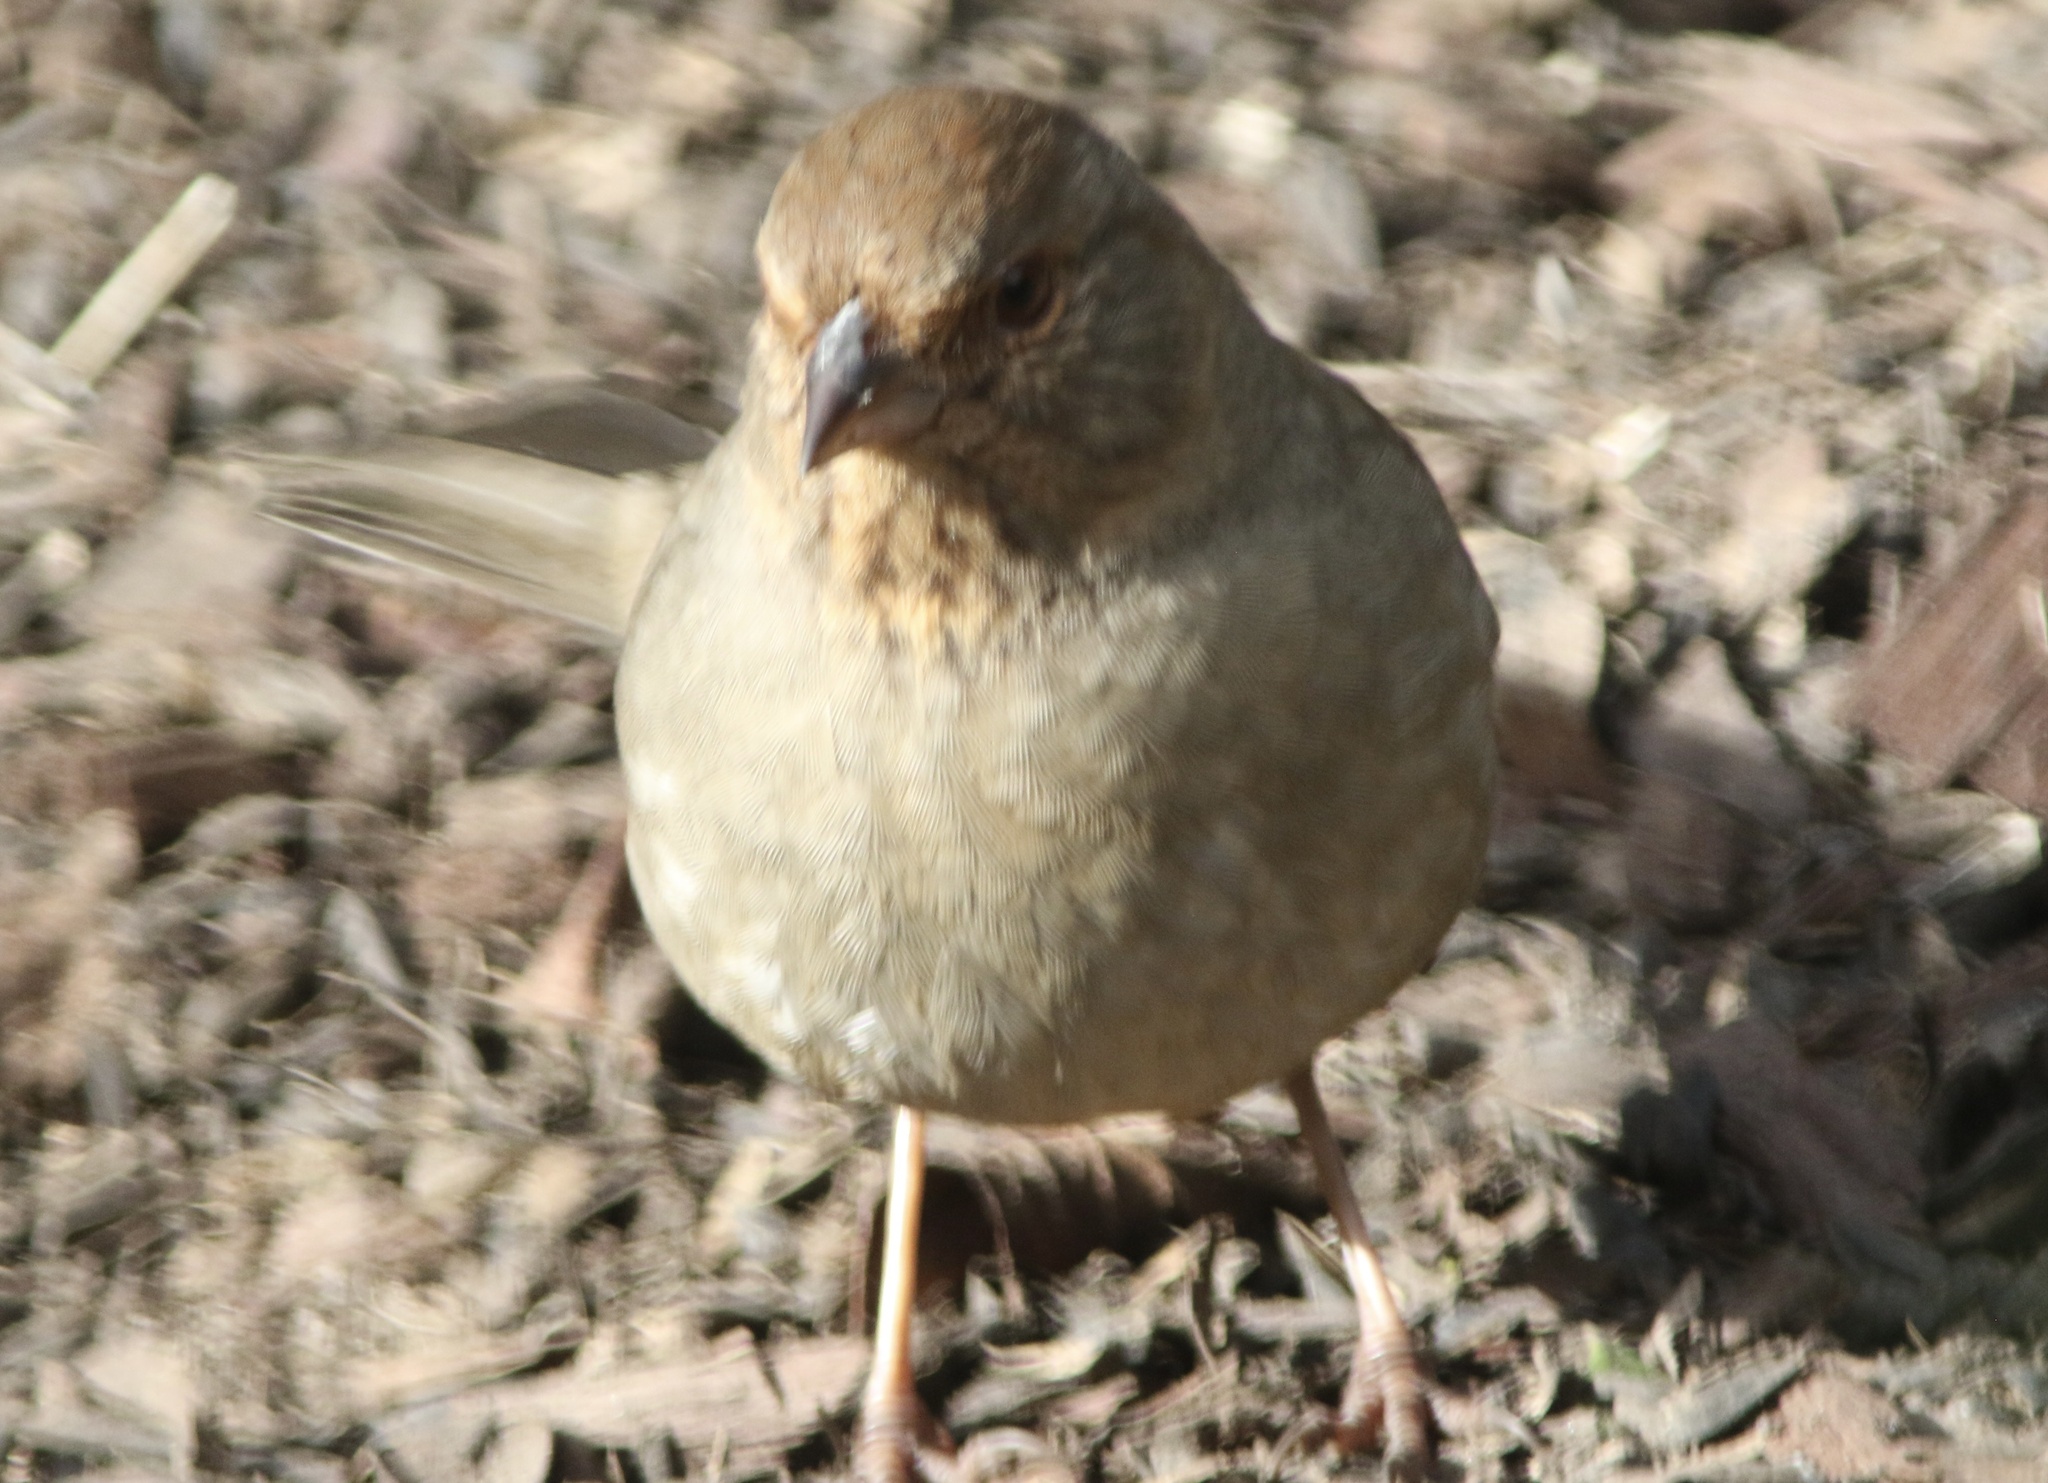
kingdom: Animalia
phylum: Chordata
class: Aves
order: Passeriformes
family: Passerellidae
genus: Melozone
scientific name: Melozone crissalis
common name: California towhee
